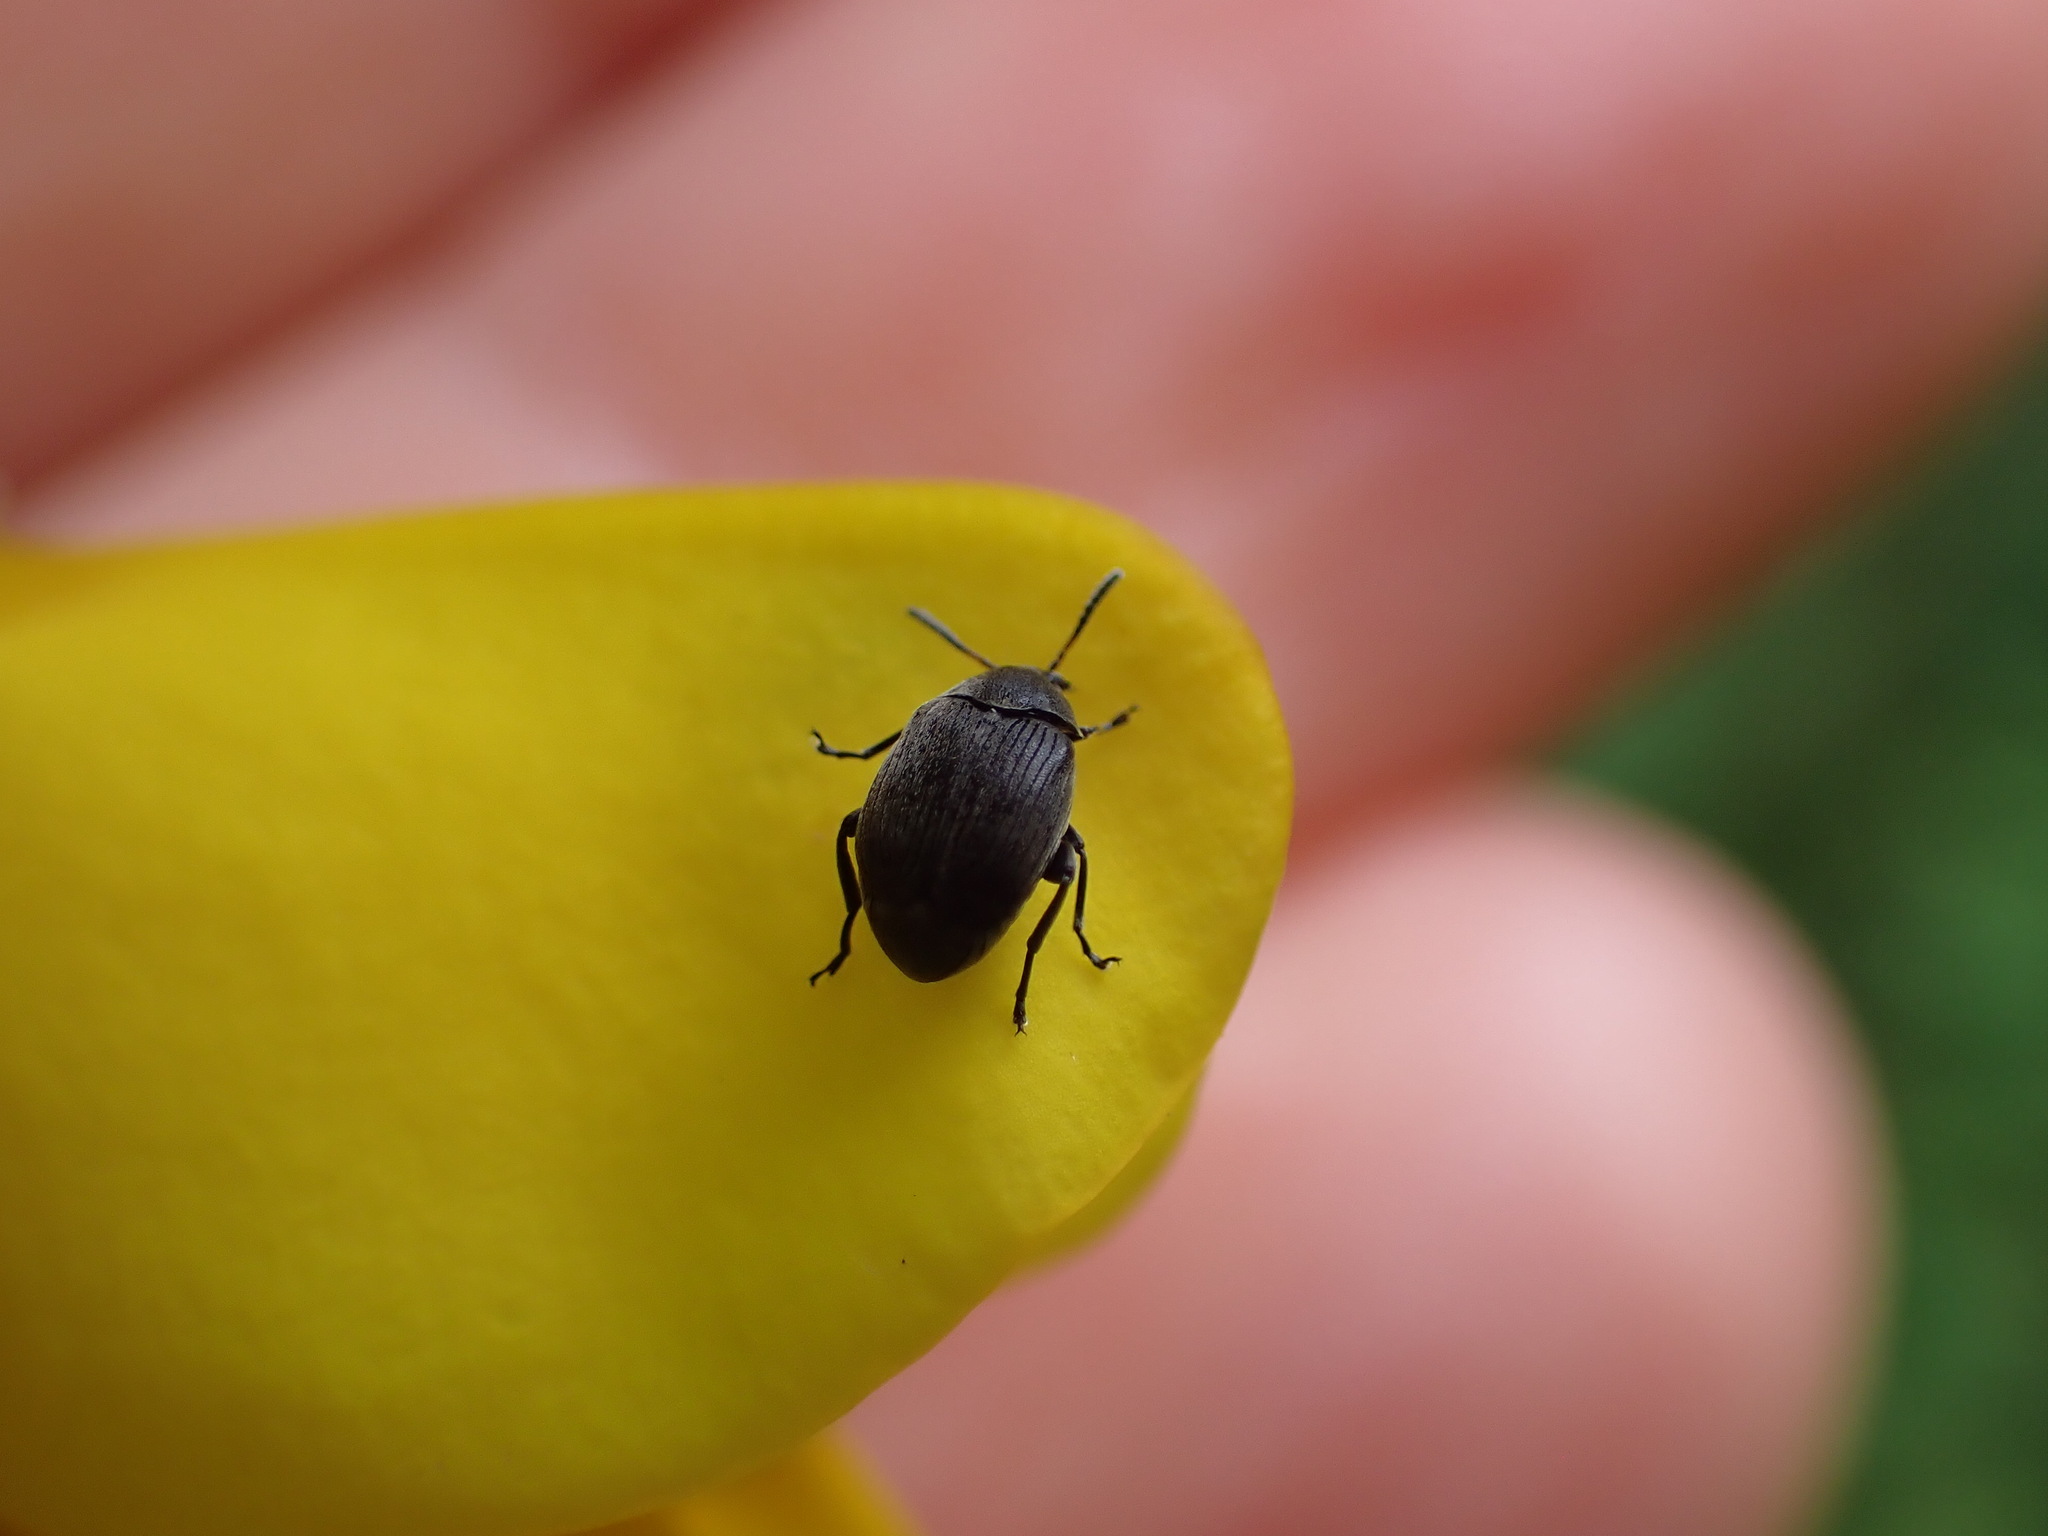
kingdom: Animalia
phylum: Arthropoda
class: Insecta
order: Coleoptera
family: Chrysomelidae
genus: Bruchidius
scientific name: Bruchidius villosus
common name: Scotch broom bruchid
